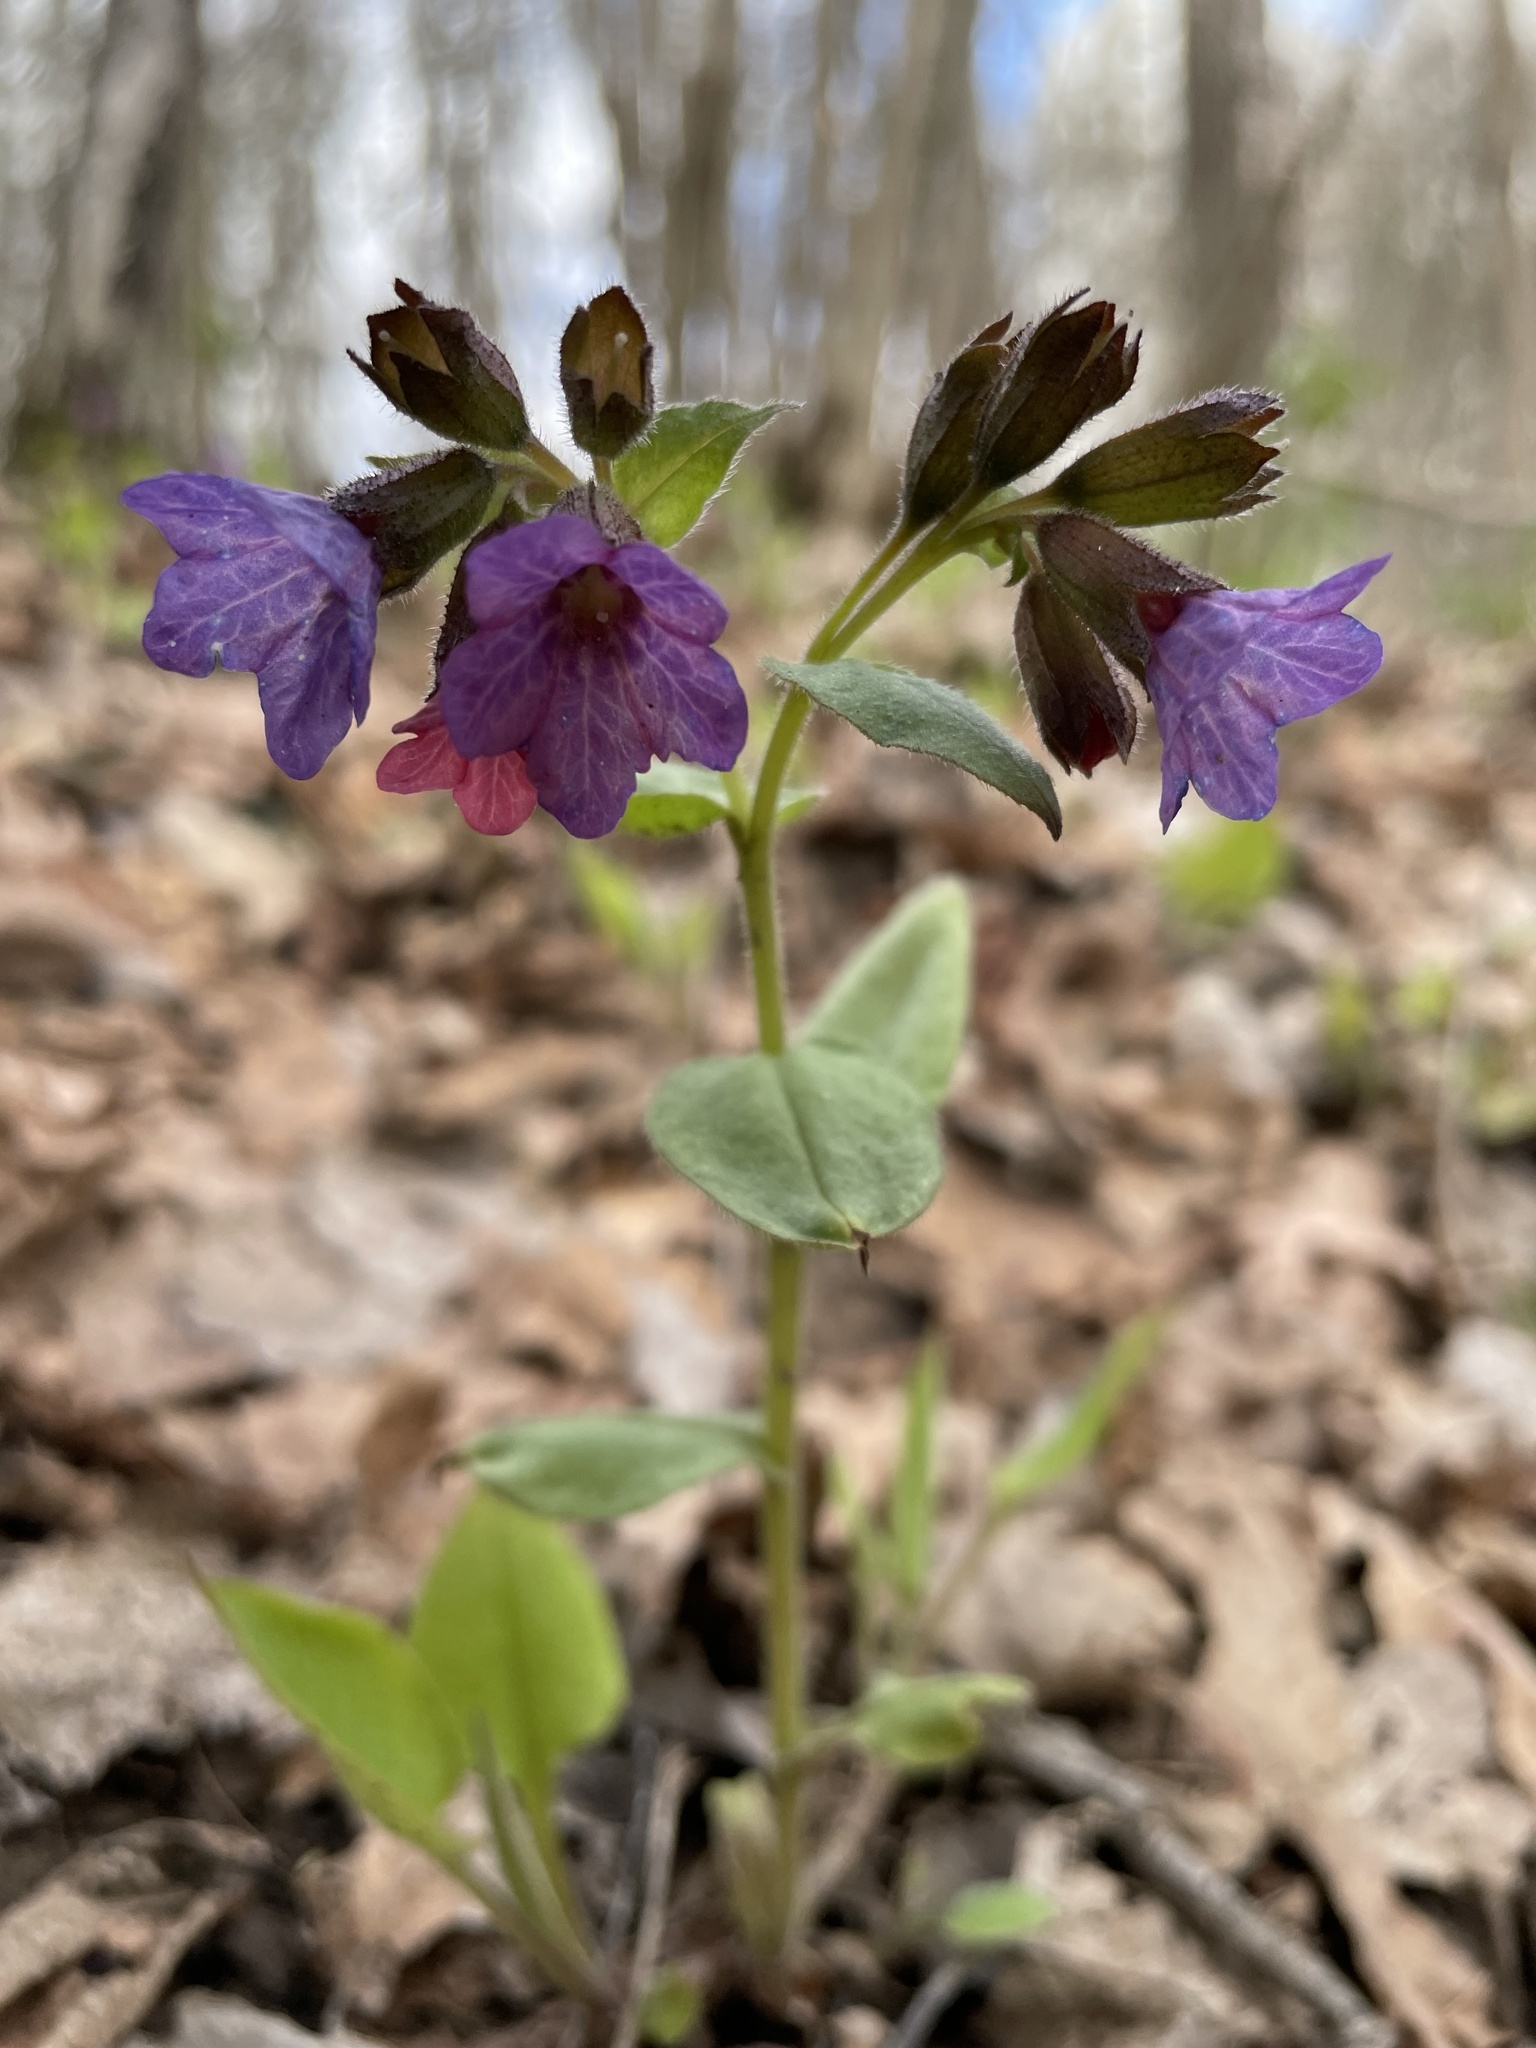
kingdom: Plantae
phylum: Tracheophyta
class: Magnoliopsida
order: Boraginales
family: Boraginaceae
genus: Pulmonaria
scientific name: Pulmonaria obscura
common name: Suffolk lungwort
